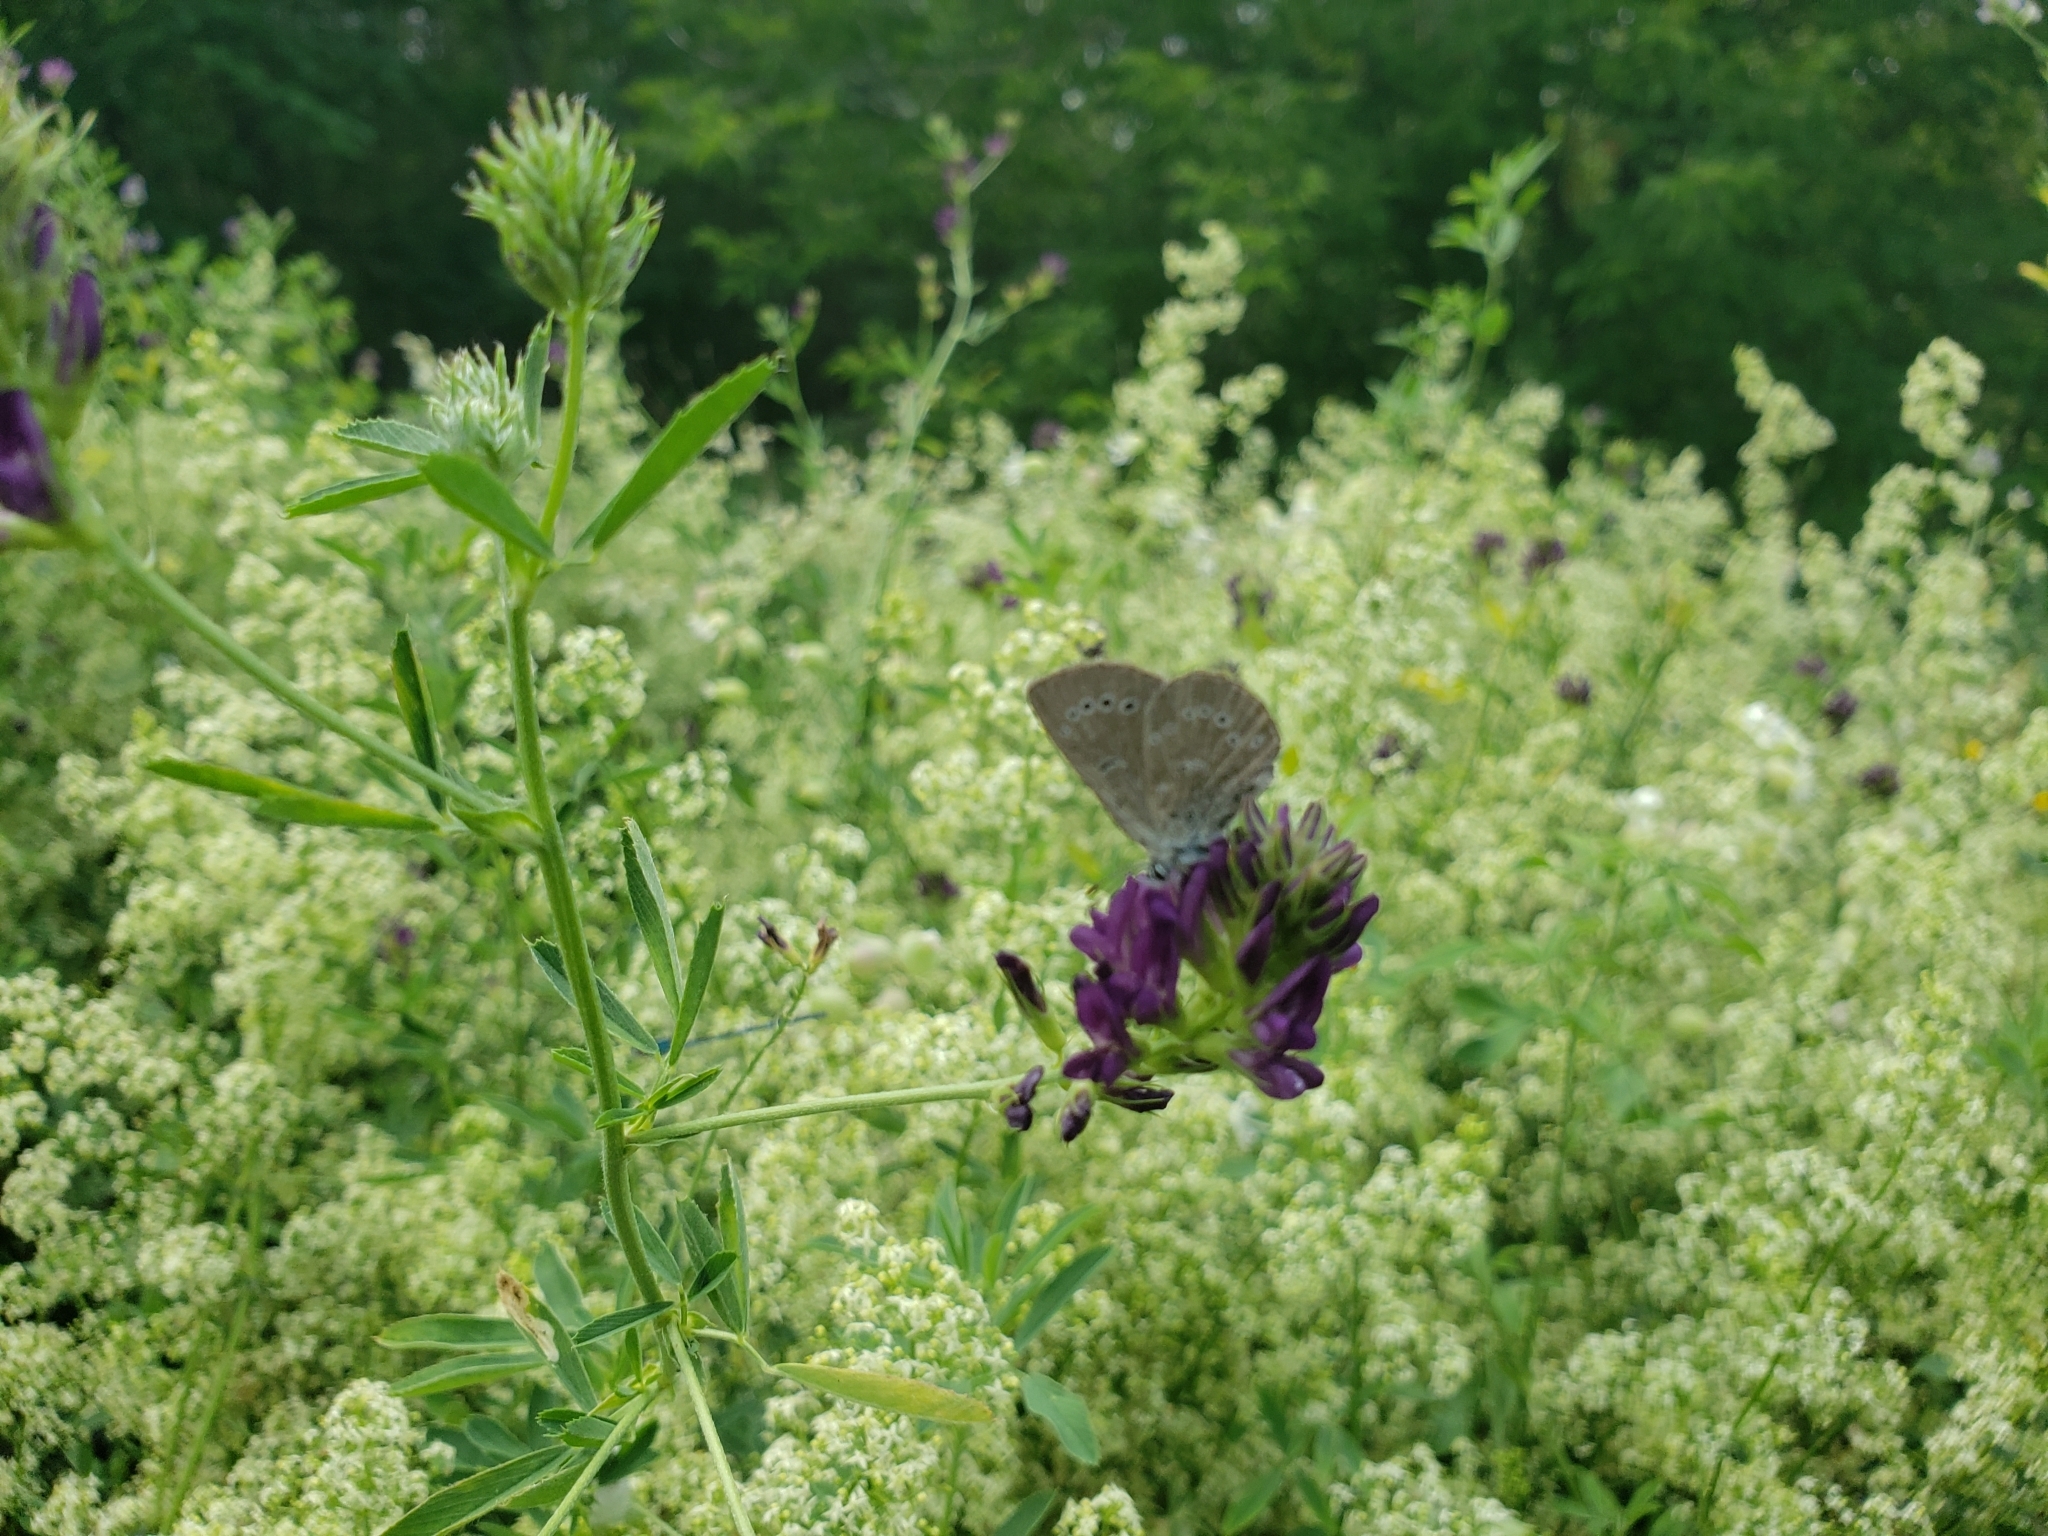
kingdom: Animalia
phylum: Arthropoda
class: Insecta
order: Lepidoptera
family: Lycaenidae
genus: Glaucopsyche
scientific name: Glaucopsyche lygdamus
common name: Silvery blue
